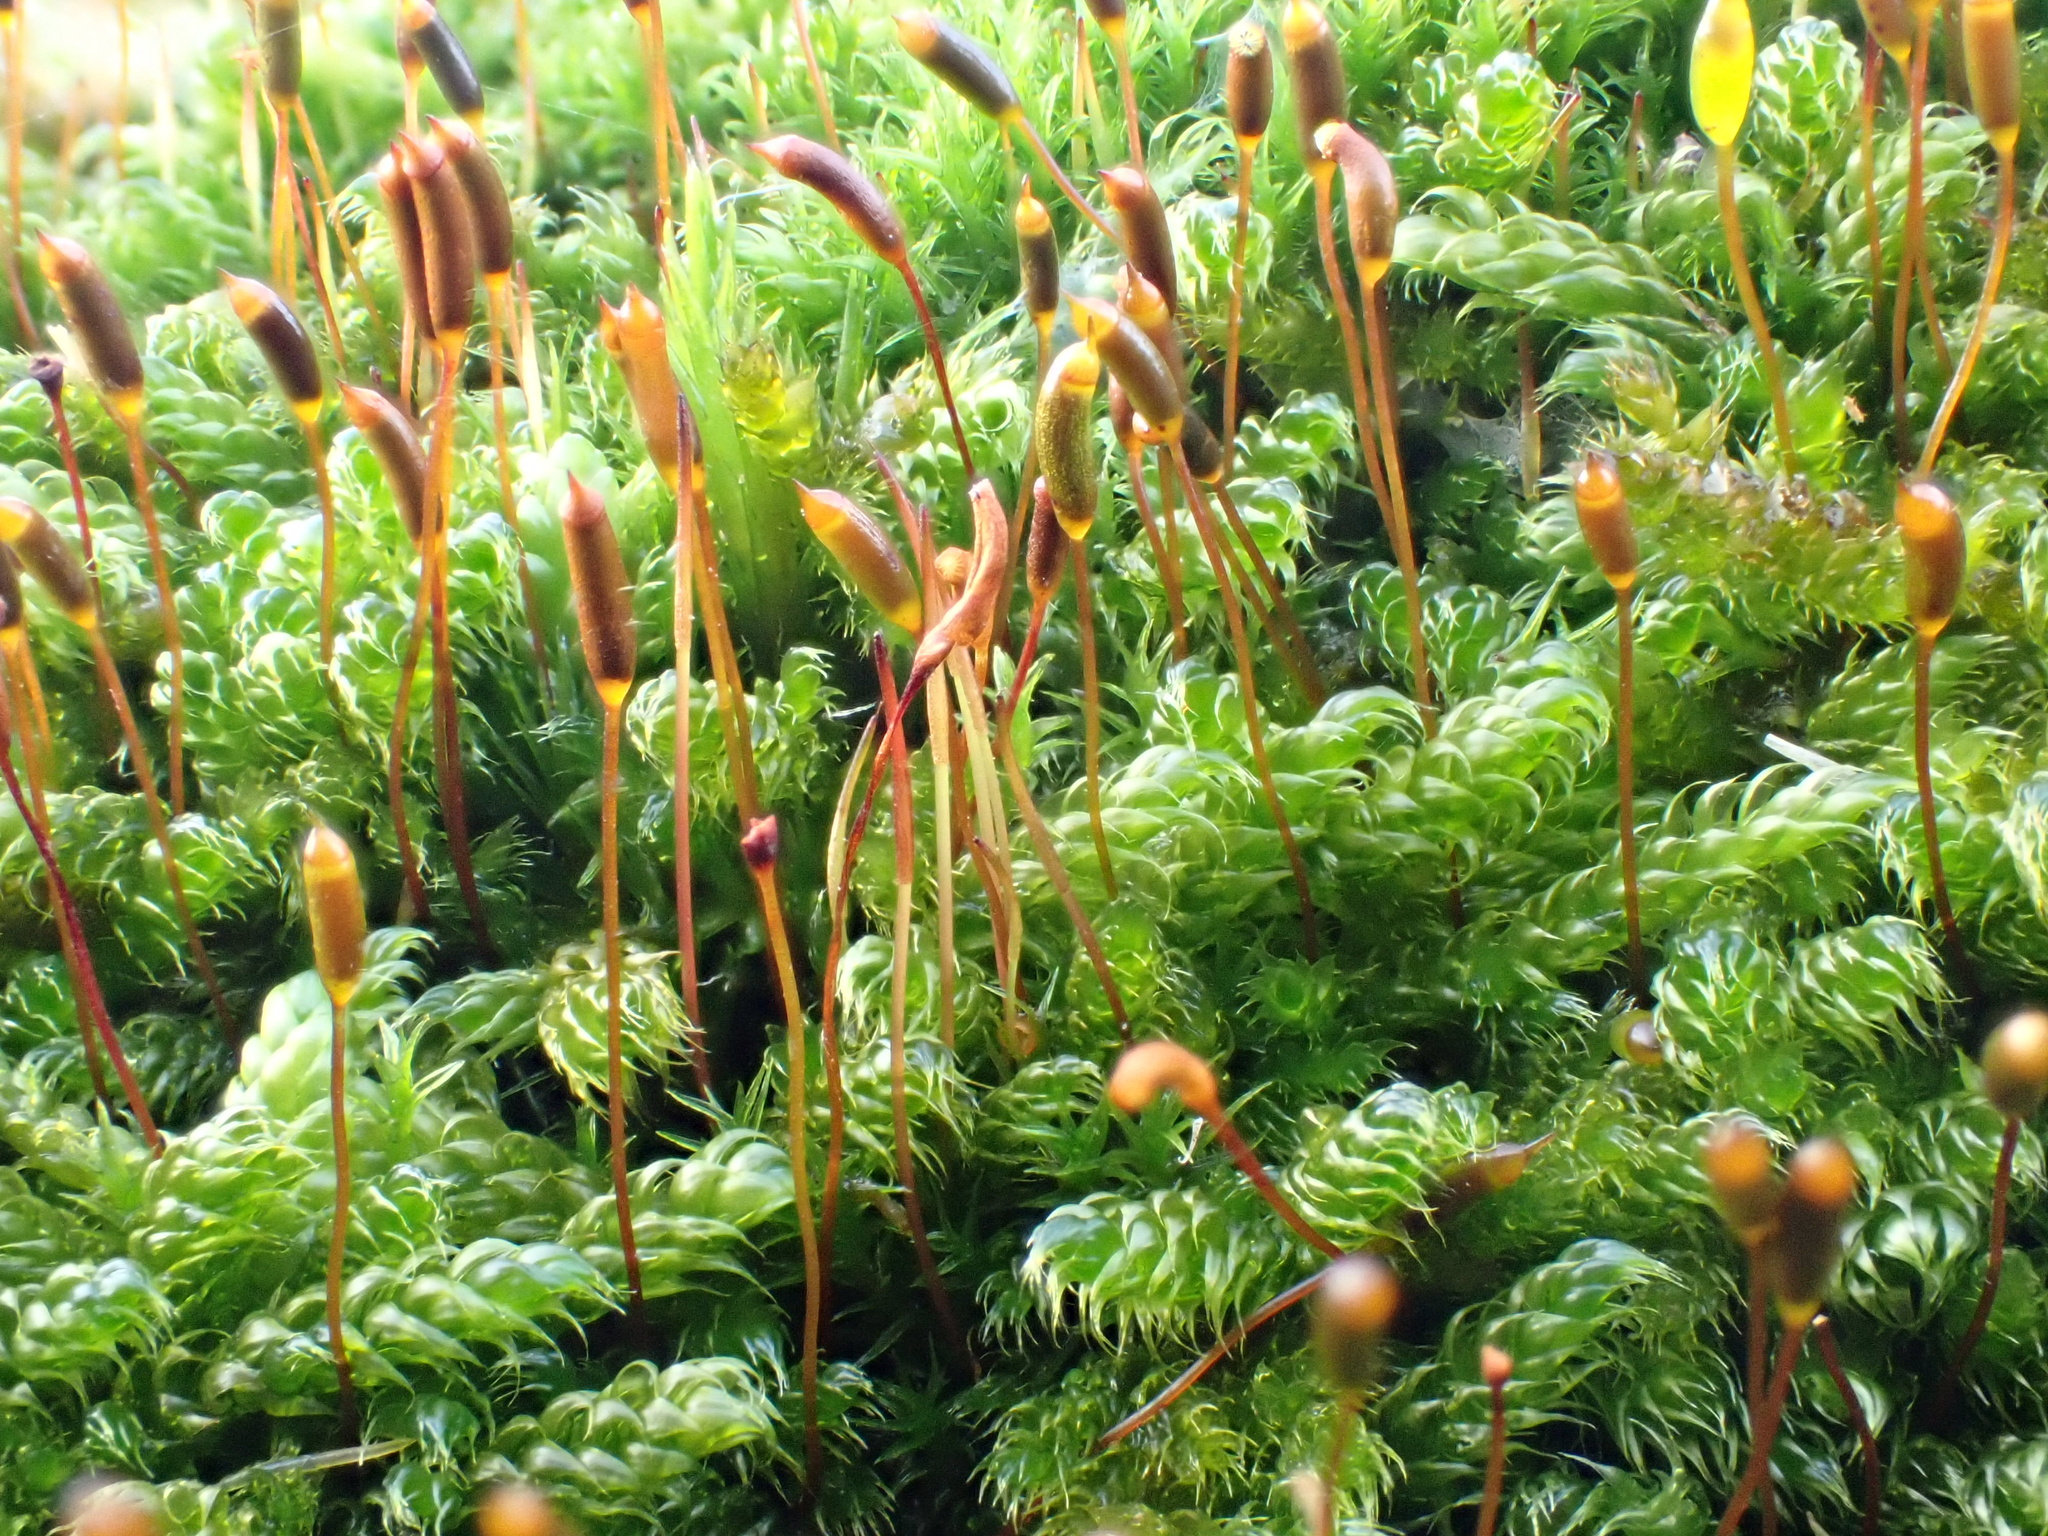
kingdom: Plantae
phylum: Bryophyta
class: Bryopsida
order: Hypnales
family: Hypnaceae
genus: Hypnum
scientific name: Hypnum cupressiforme
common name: Cypress-leaved plait-moss
